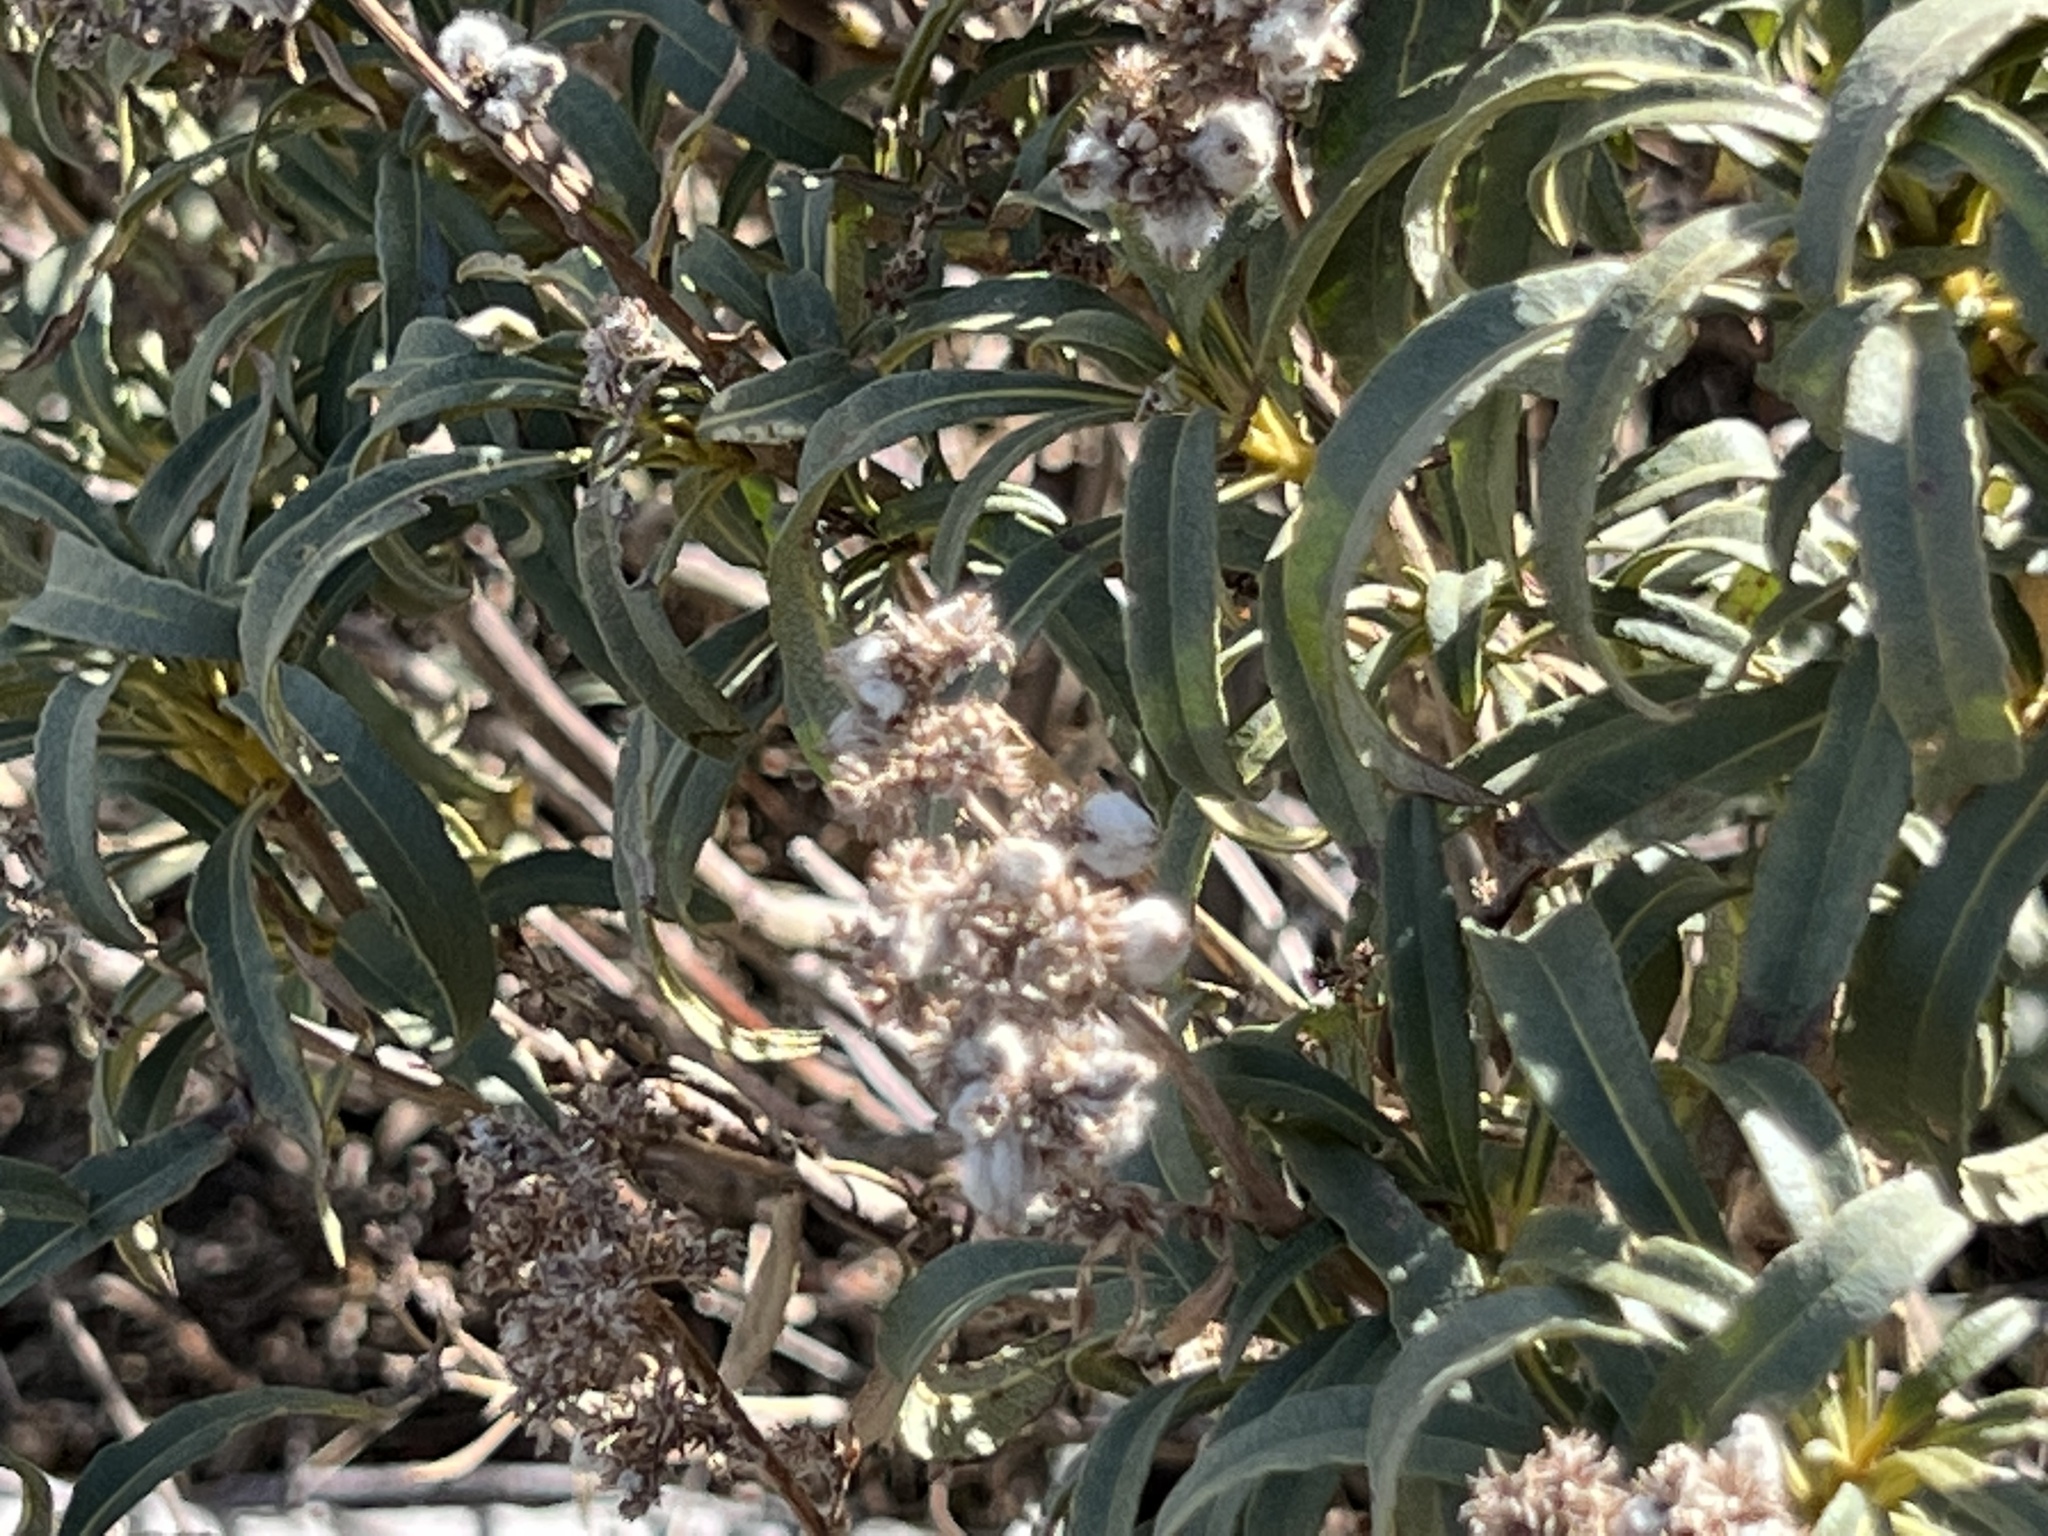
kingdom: Plantae
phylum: Tracheophyta
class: Magnoliopsida
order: Boraginales
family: Namaceae
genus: Eriodictyon
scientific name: Eriodictyon trichocalyx
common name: Hairy yerba-santa
